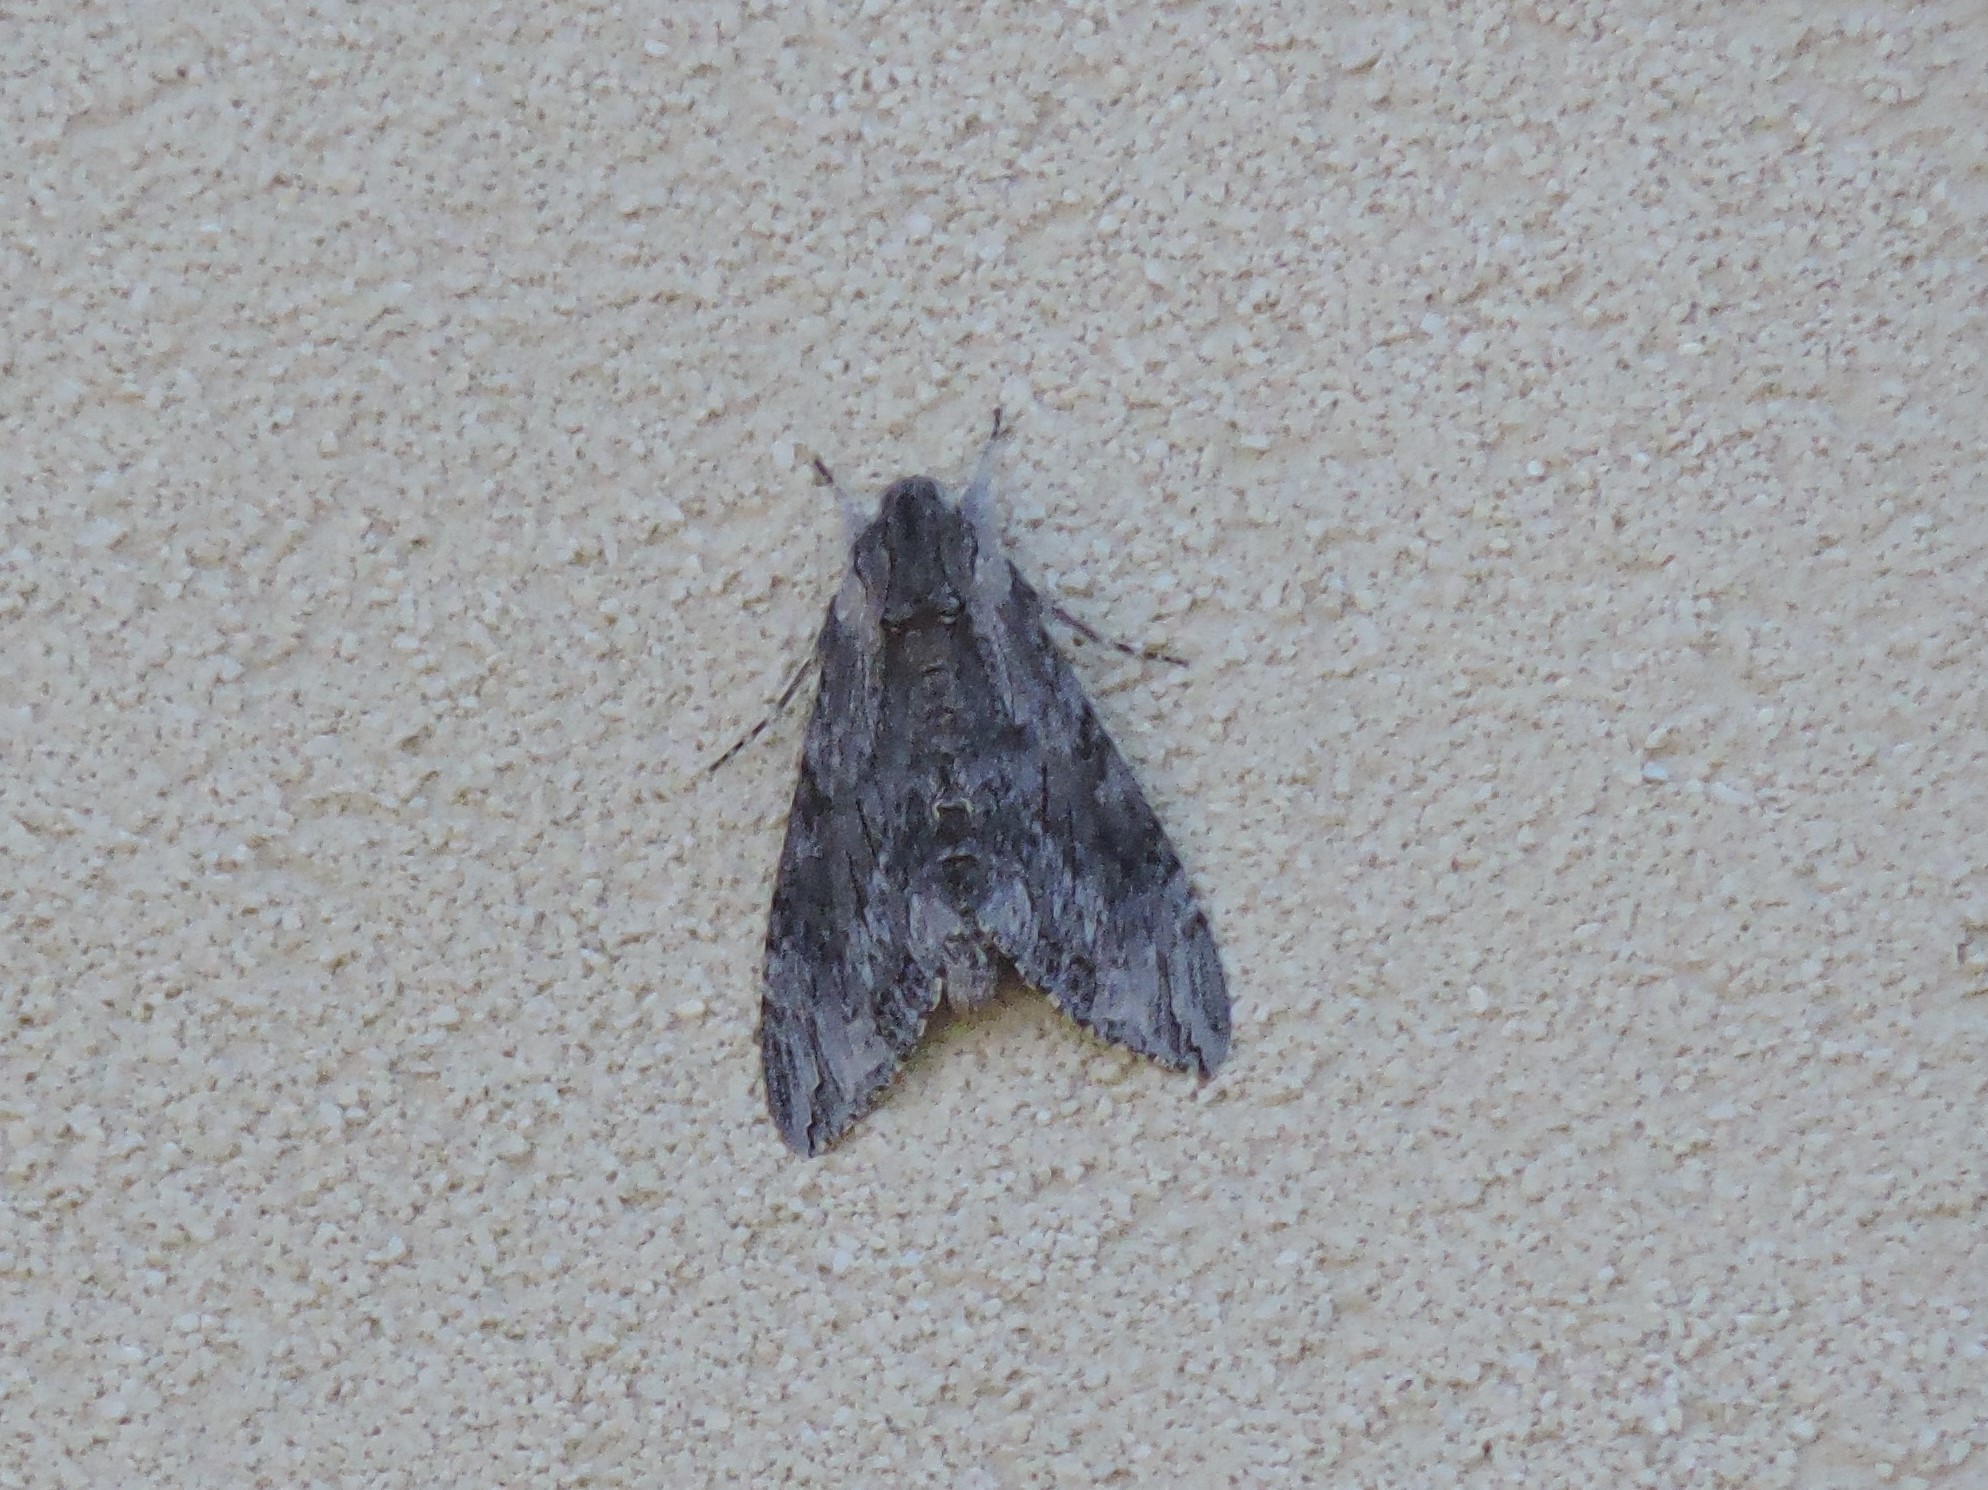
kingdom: Animalia
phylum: Arthropoda
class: Insecta
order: Lepidoptera
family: Sphingidae
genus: Agrius
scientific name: Agrius convolvuli
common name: Convolvulus hawkmoth
